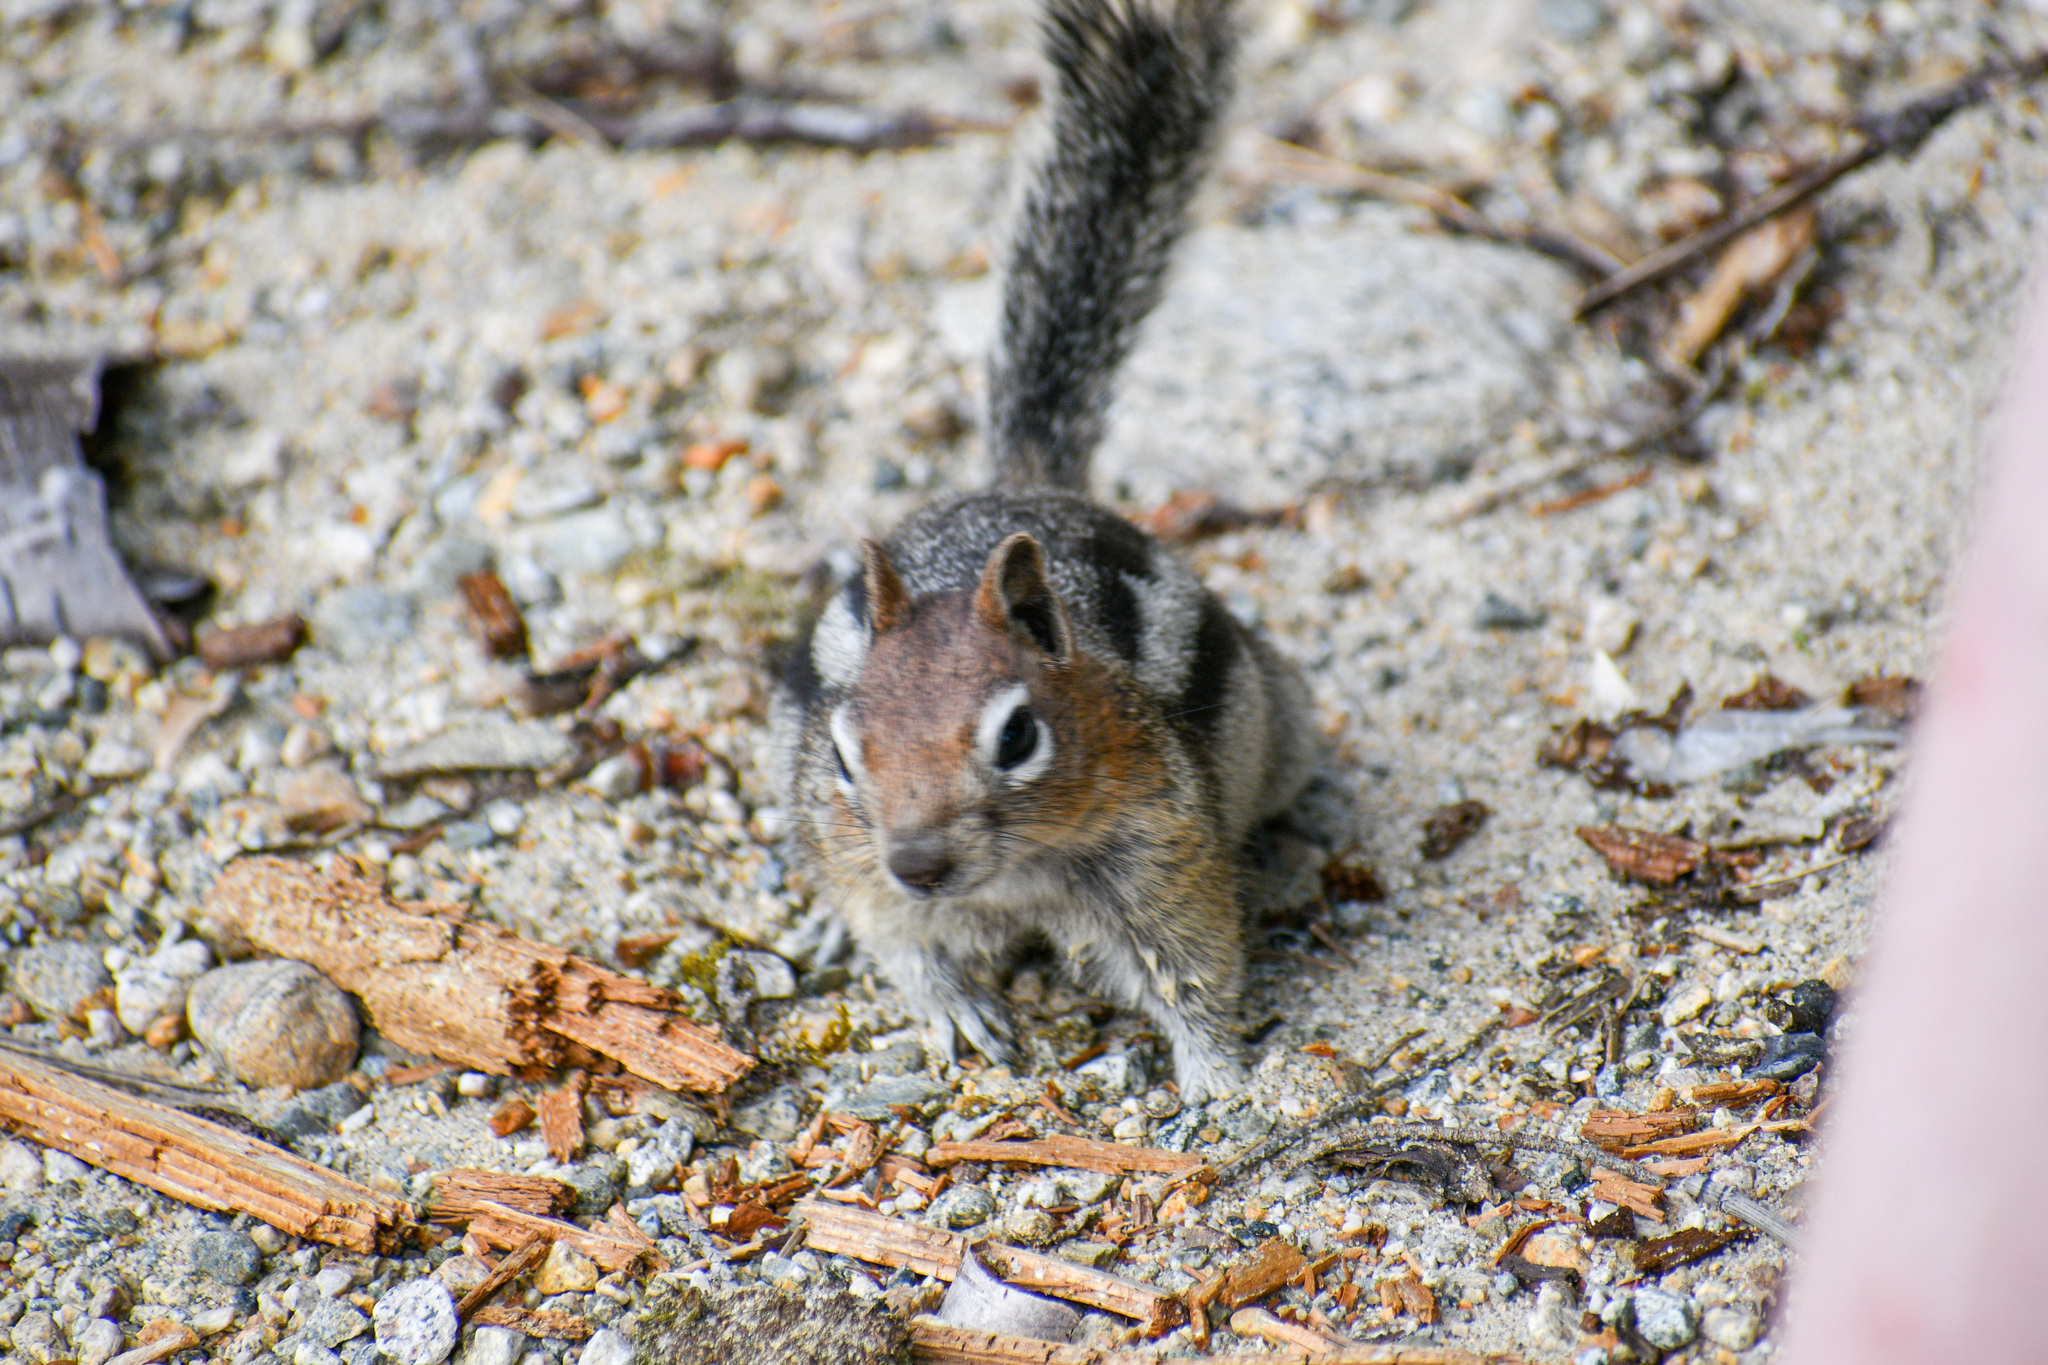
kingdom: Animalia
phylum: Chordata
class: Mammalia
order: Rodentia
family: Sciuridae
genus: Callospermophilus
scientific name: Callospermophilus lateralis
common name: Golden-mantled ground squirrel
